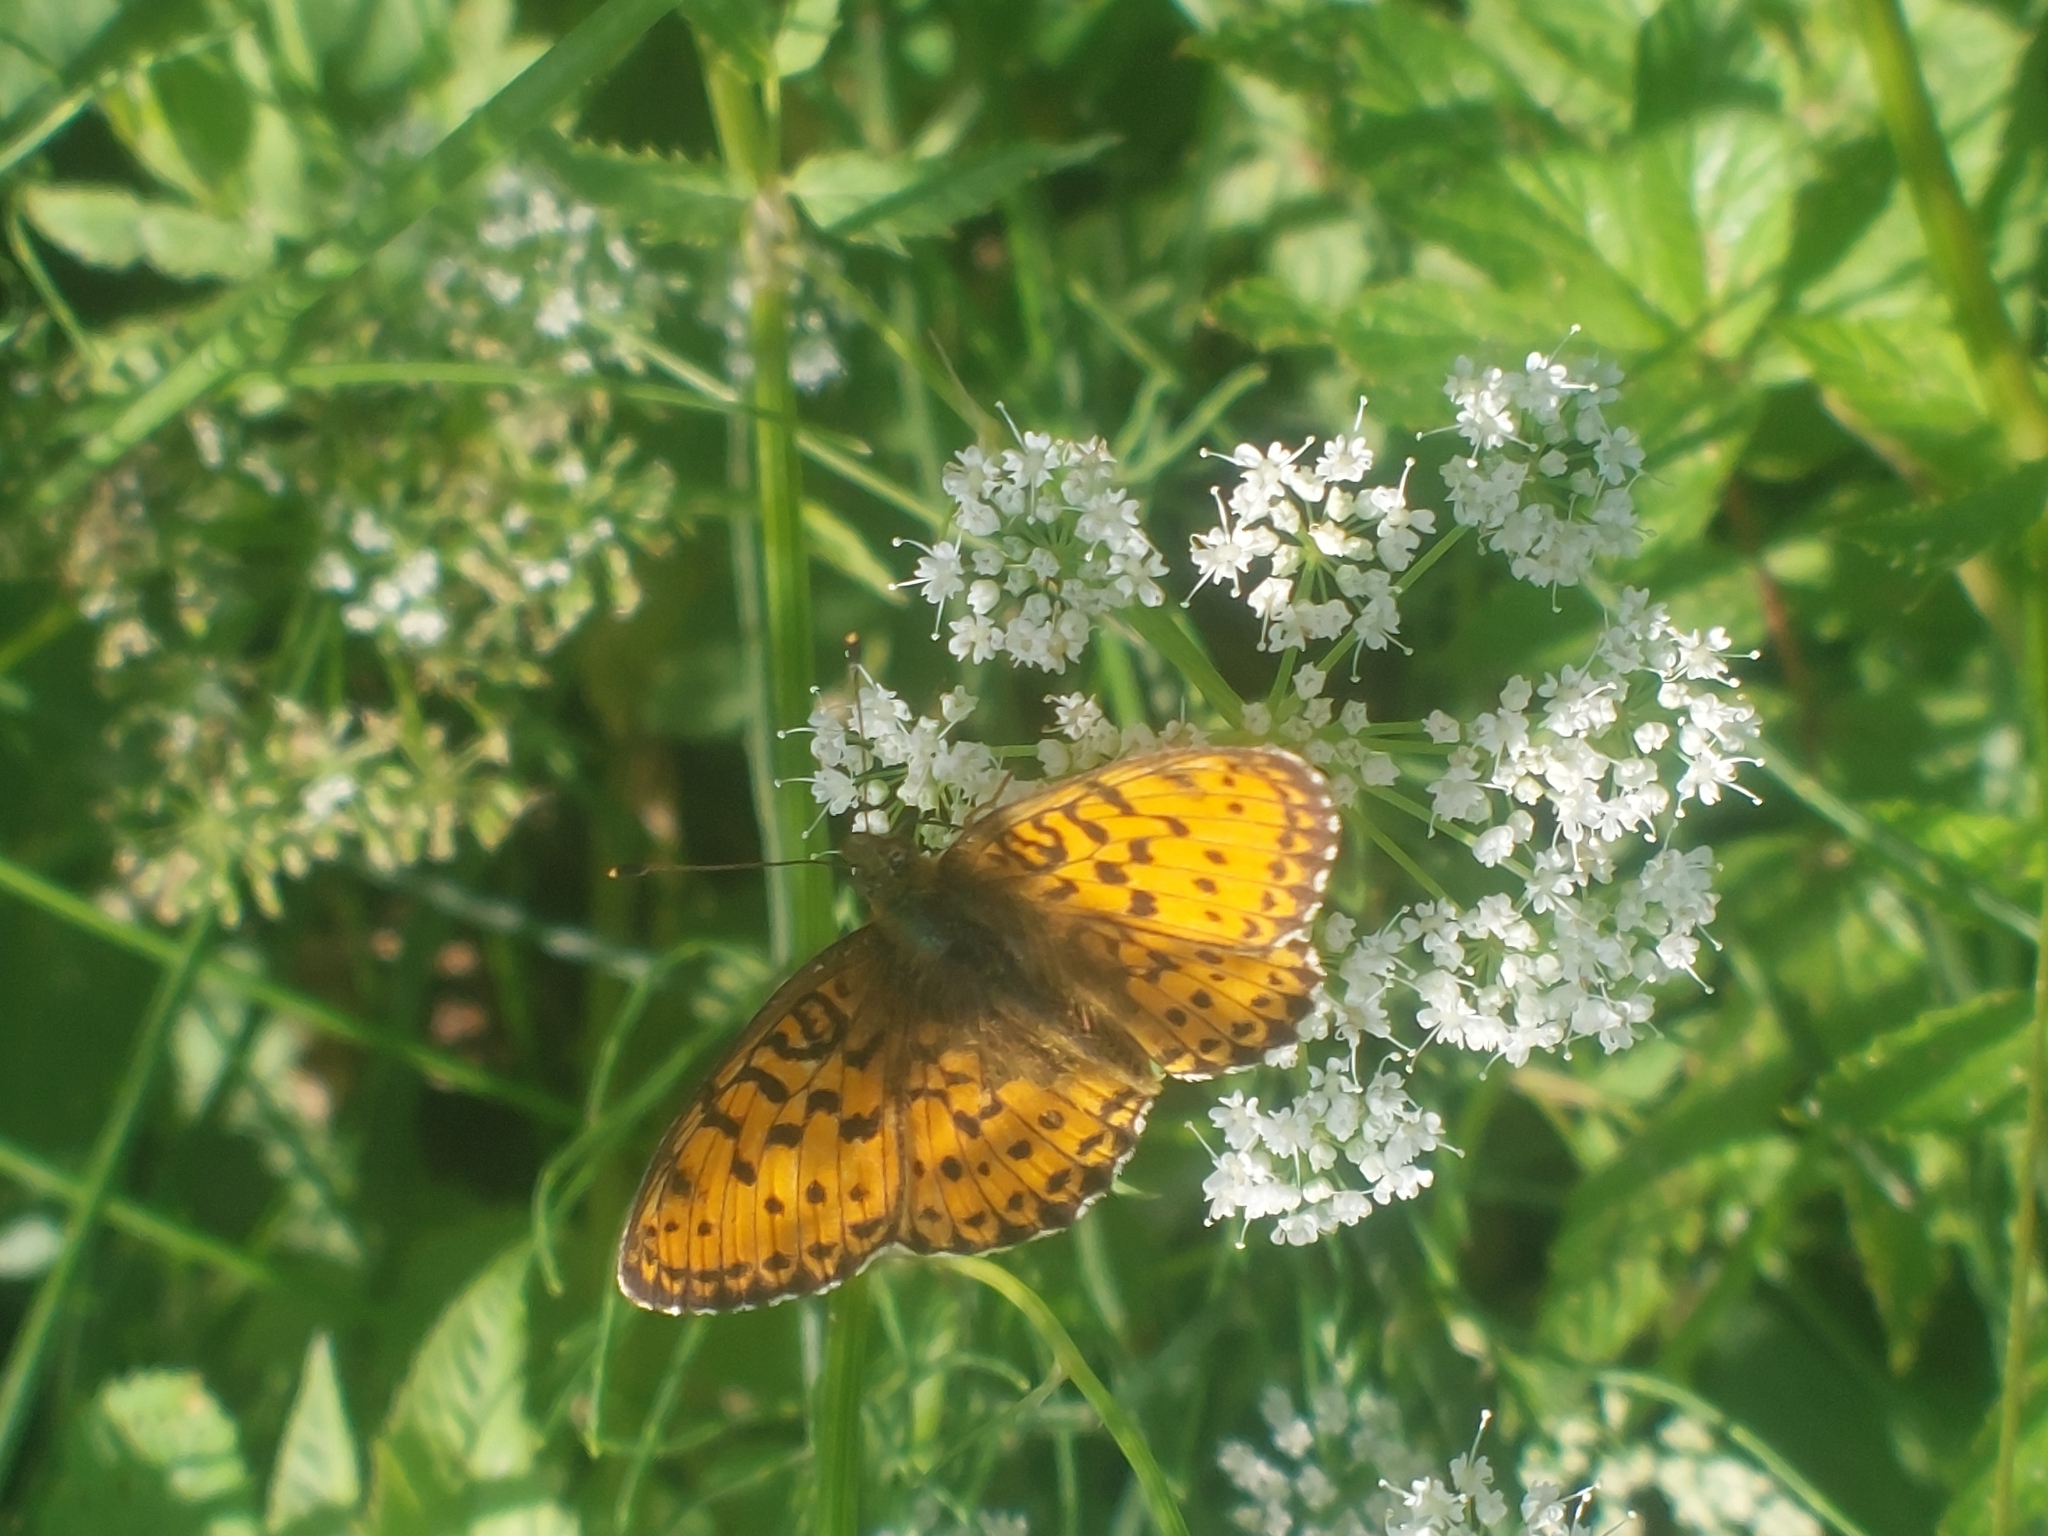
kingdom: Animalia
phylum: Arthropoda
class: Insecta
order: Lepidoptera
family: Nymphalidae
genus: Brenthis
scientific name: Brenthis ino
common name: Lesser marbled fritillary
